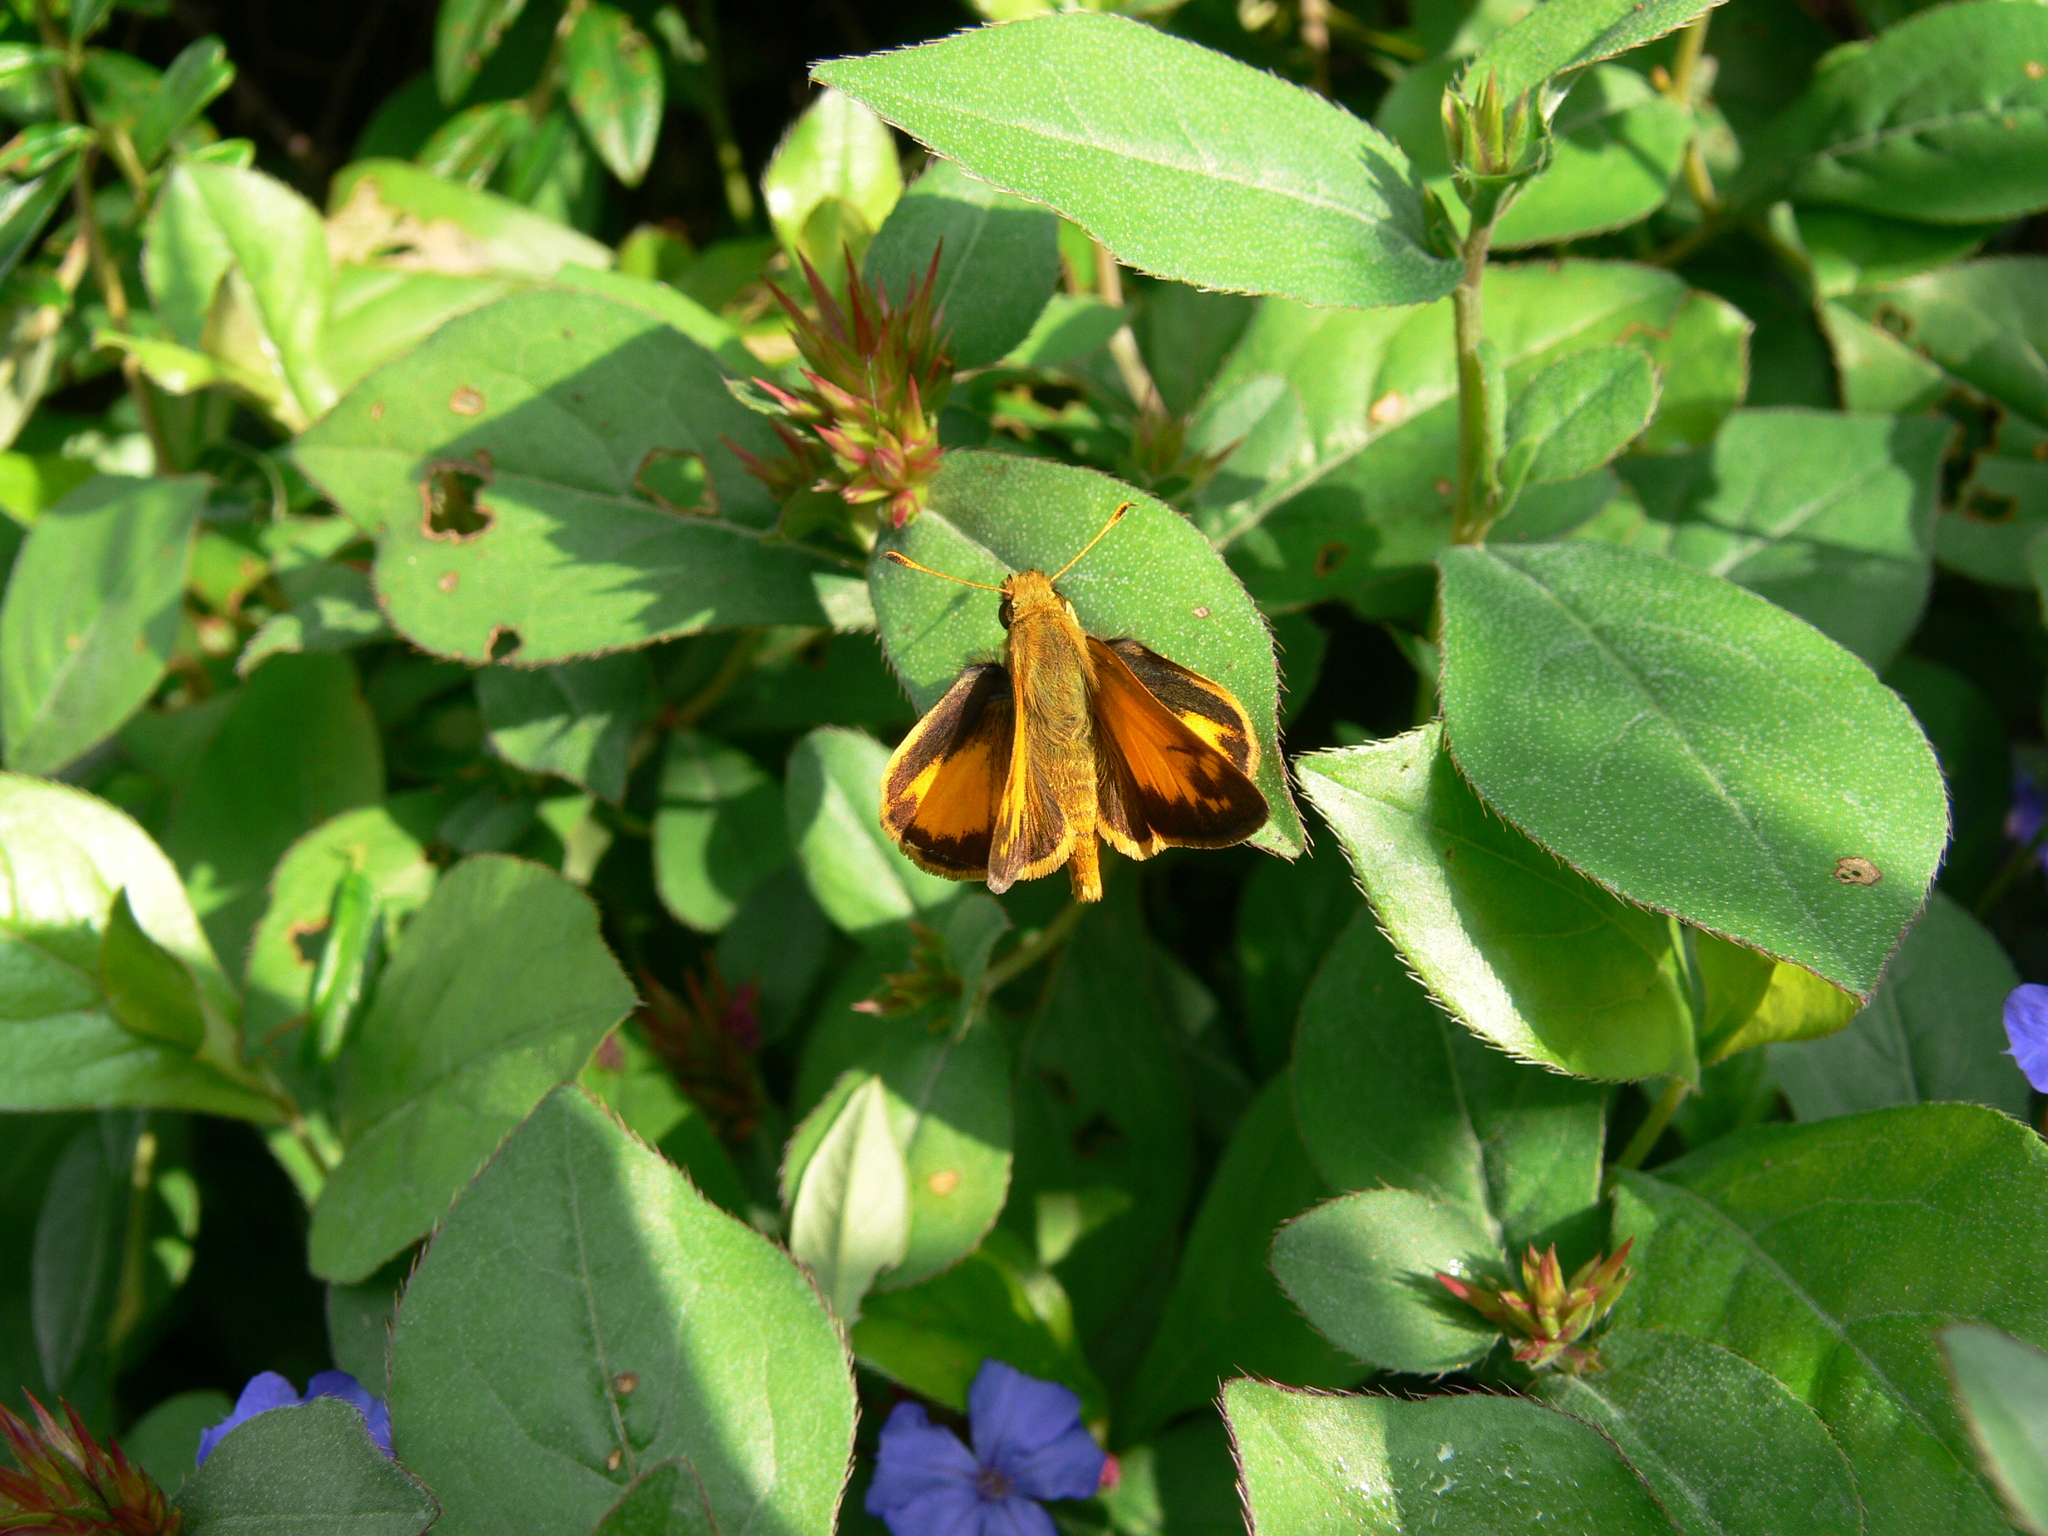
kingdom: Animalia
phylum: Arthropoda
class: Insecta
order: Lepidoptera
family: Hesperiidae
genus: Lon
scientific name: Lon zabulon
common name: Zabulon skipper
